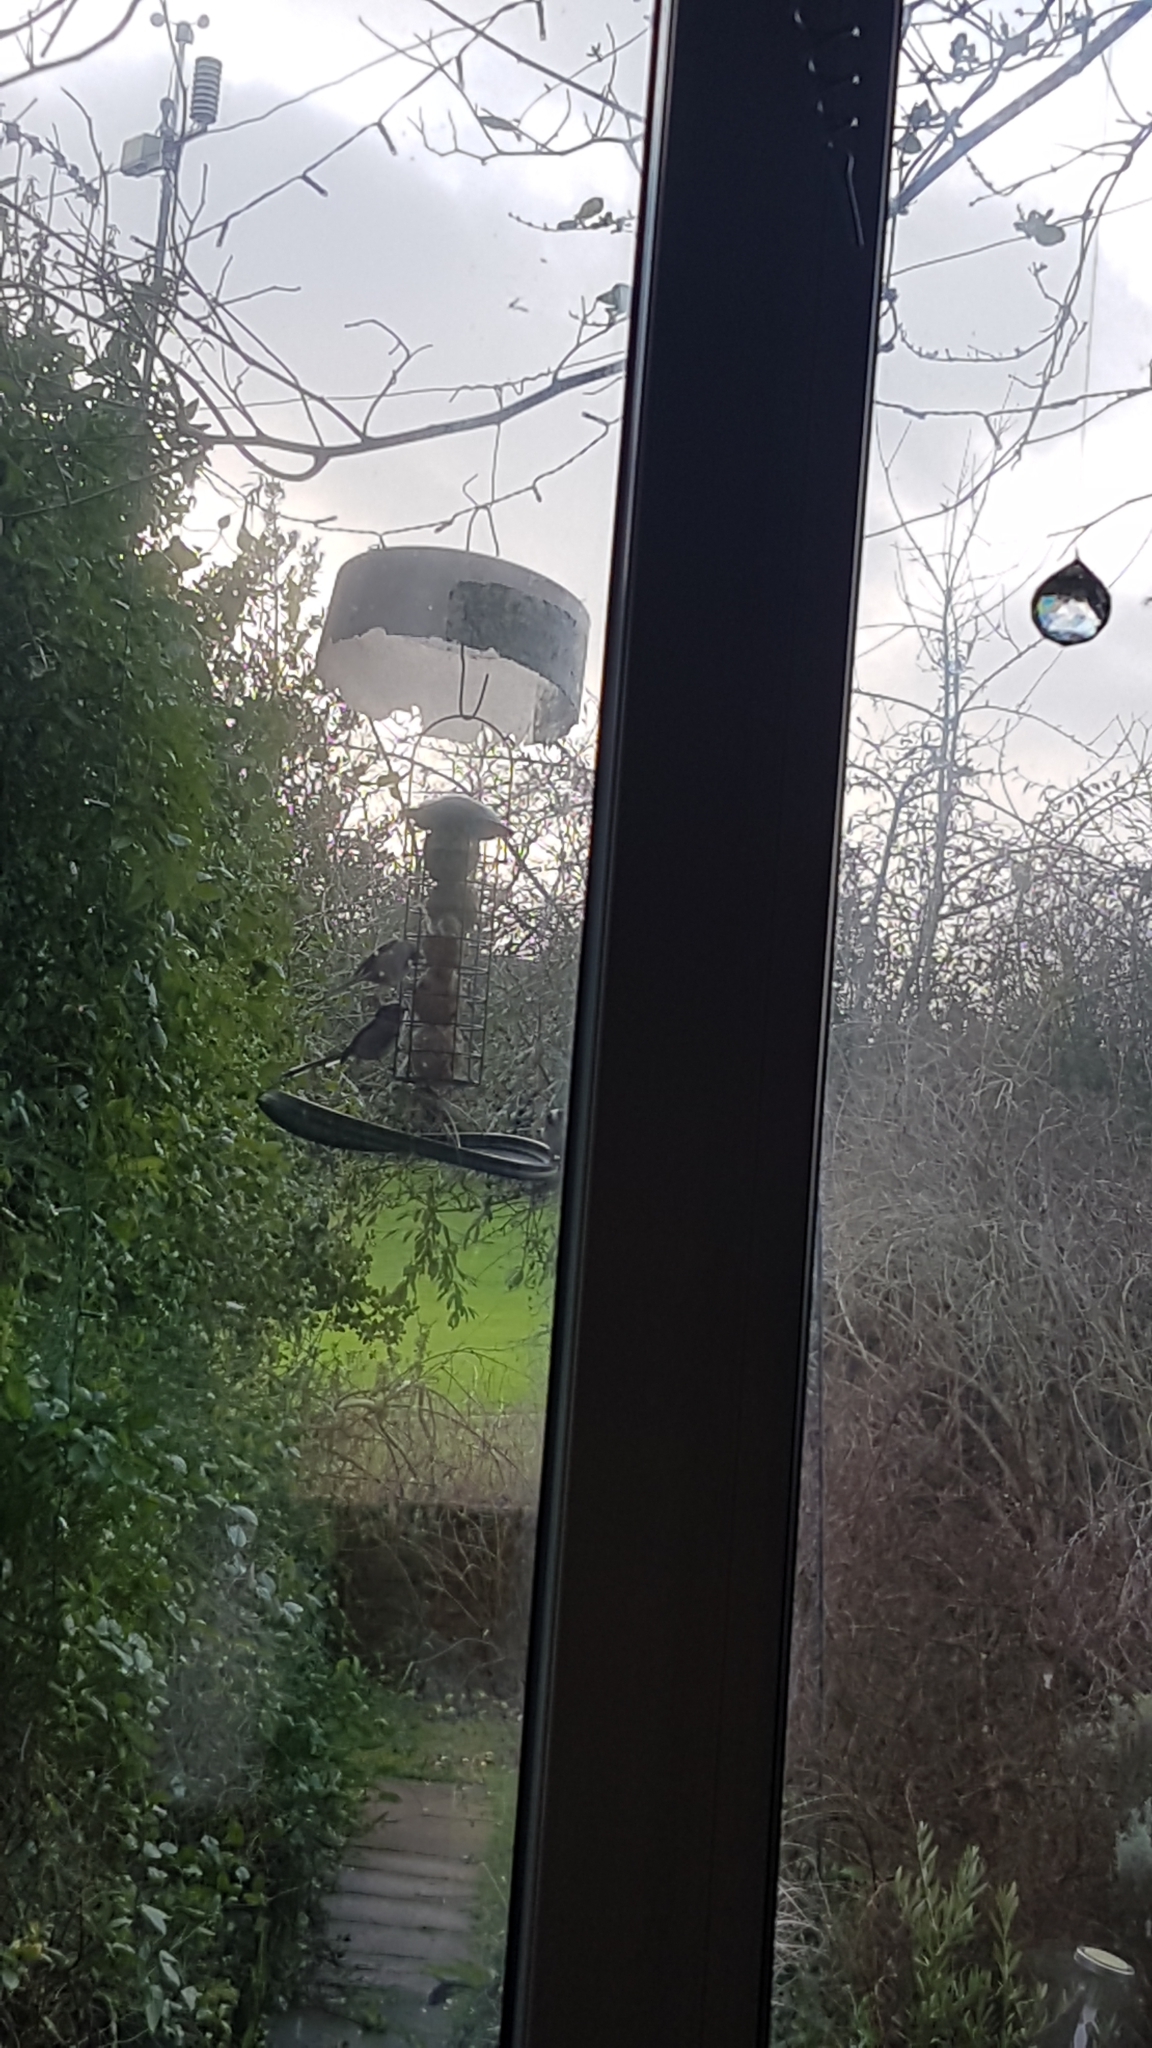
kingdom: Animalia
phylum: Chordata
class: Aves
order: Passeriformes
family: Aegithalidae
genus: Aegithalos
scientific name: Aegithalos caudatus
